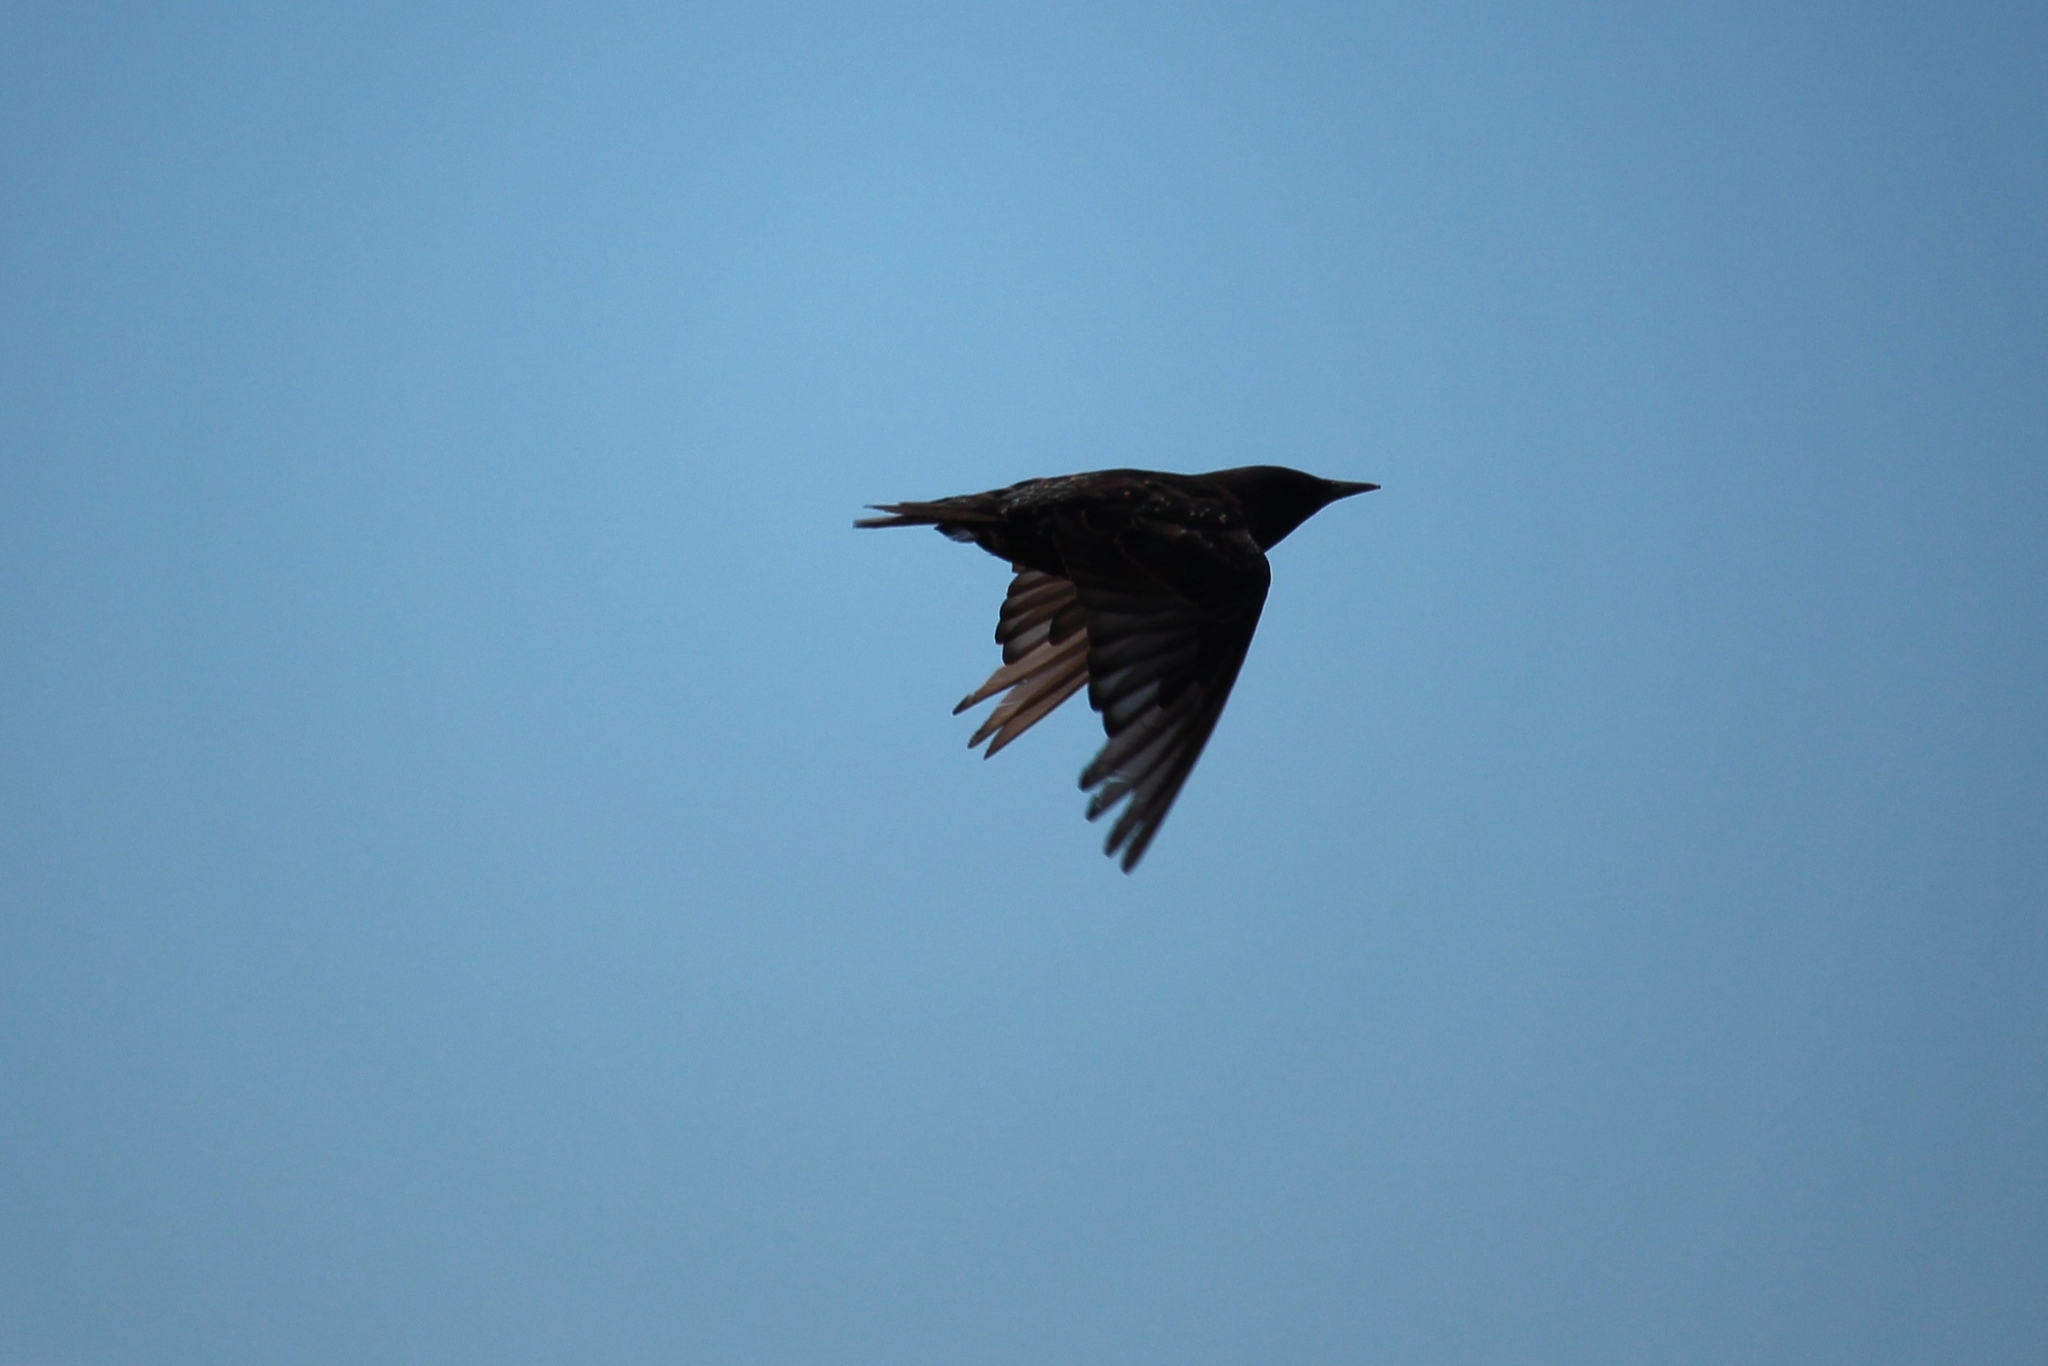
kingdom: Animalia
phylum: Chordata
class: Aves
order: Passeriformes
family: Sturnidae
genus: Sturnus
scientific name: Sturnus vulgaris
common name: Common starling
